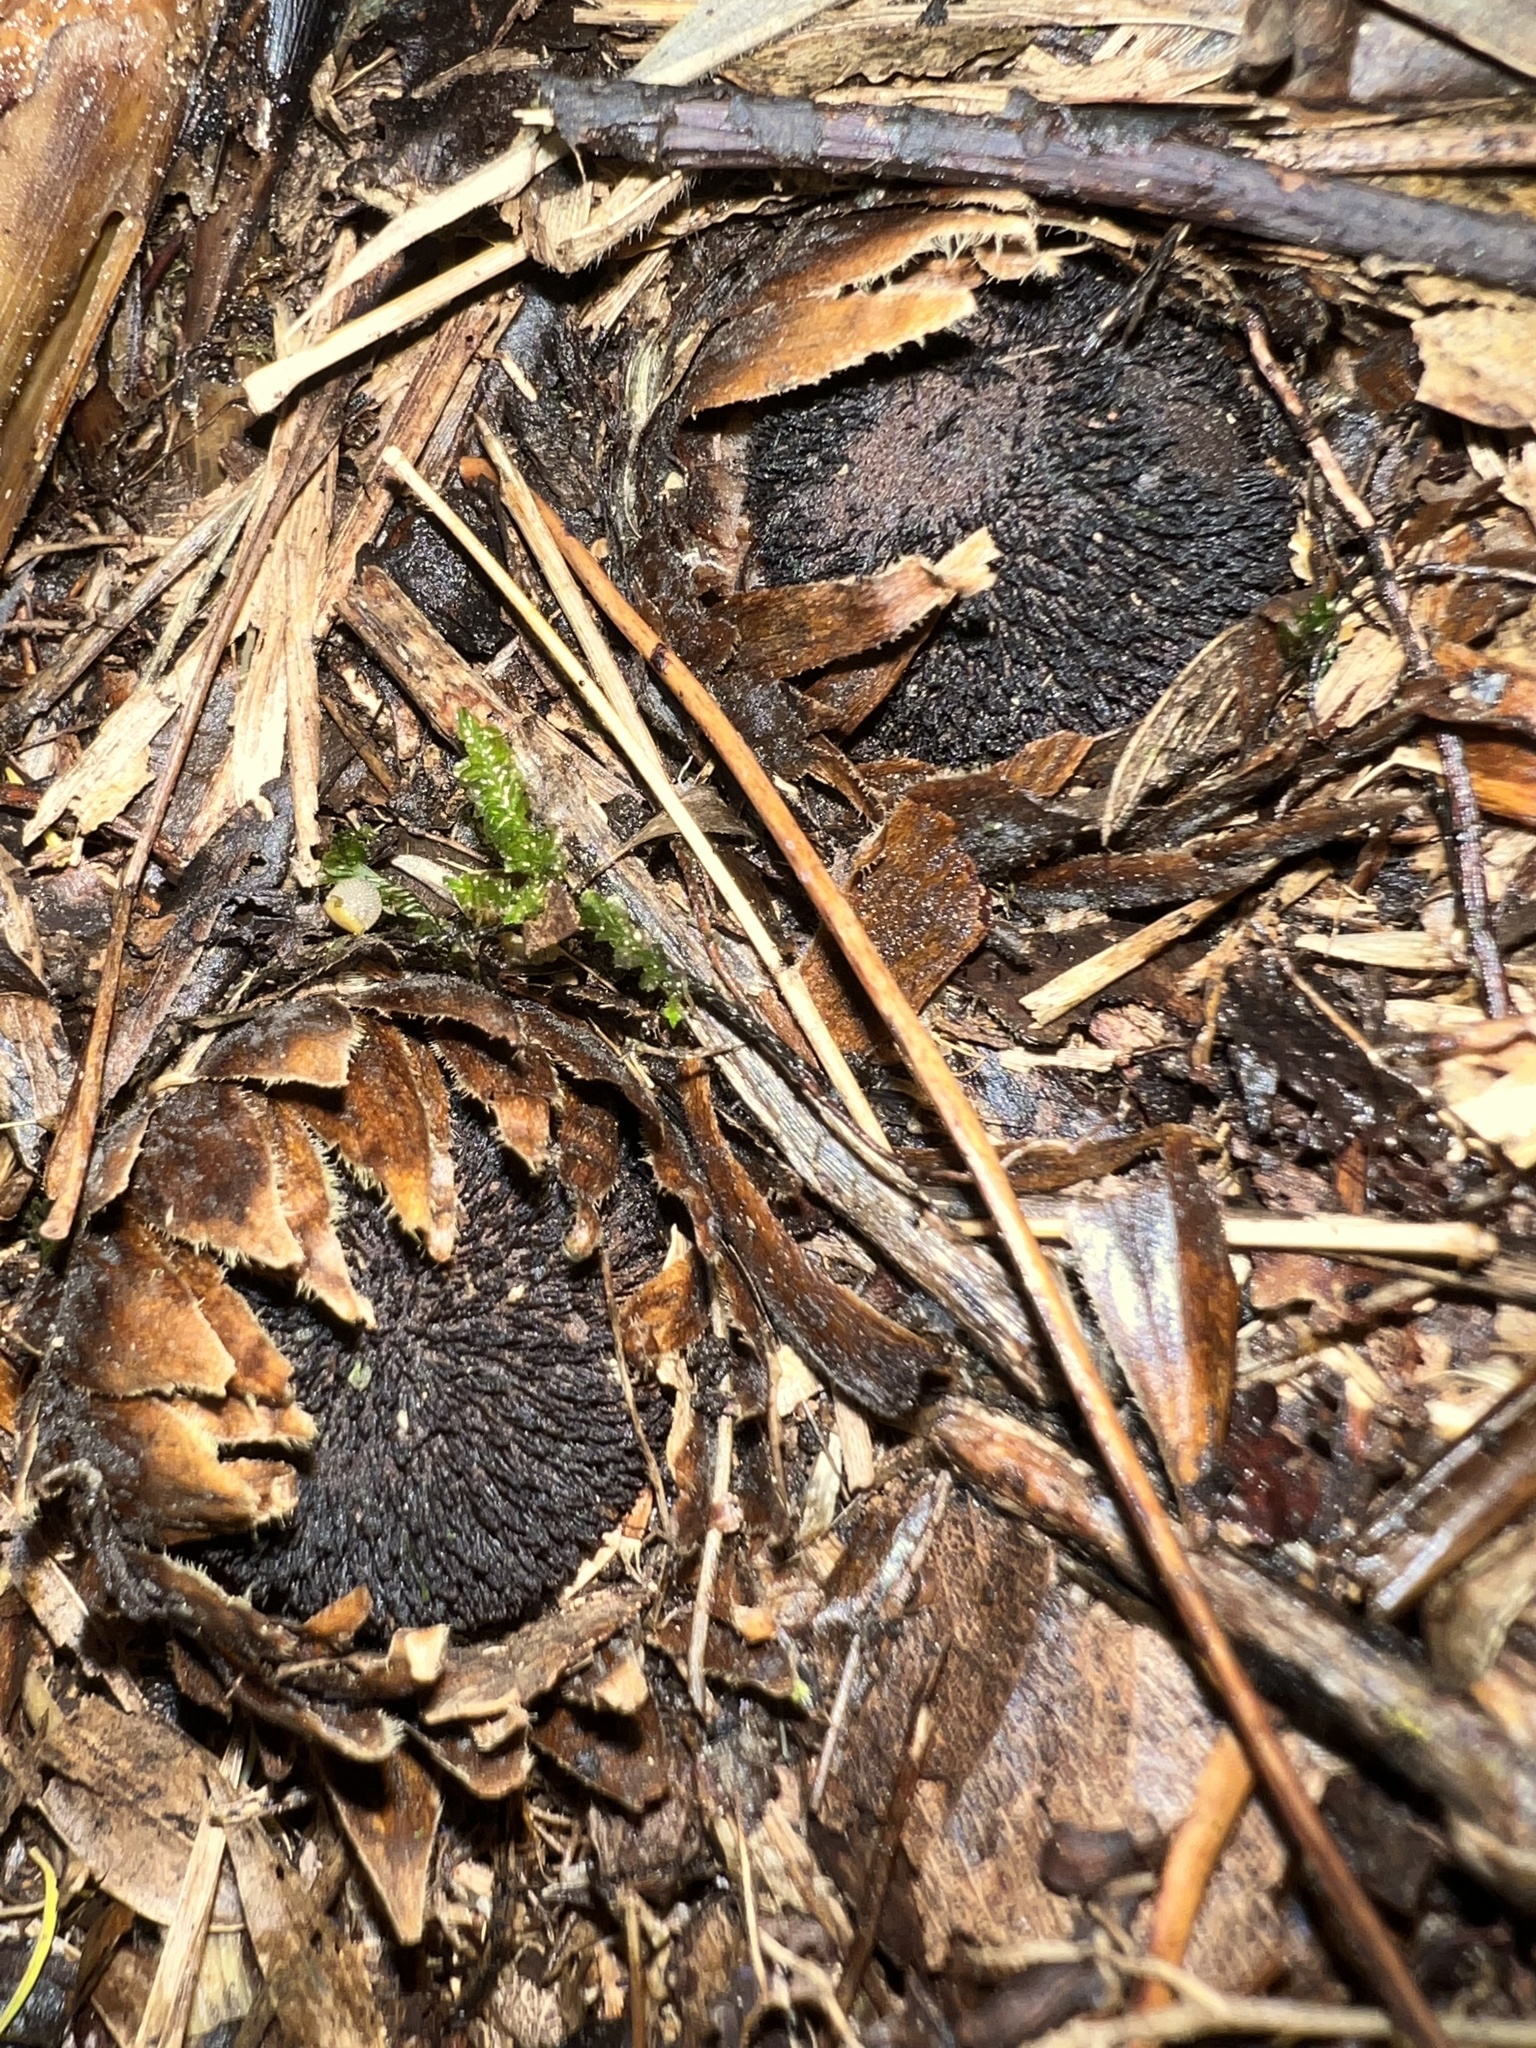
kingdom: Plantae
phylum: Tracheophyta
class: Magnoliopsida
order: Santalales
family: Balanophoraceae
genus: Langsdorffia
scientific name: Langsdorffia hypogaea
